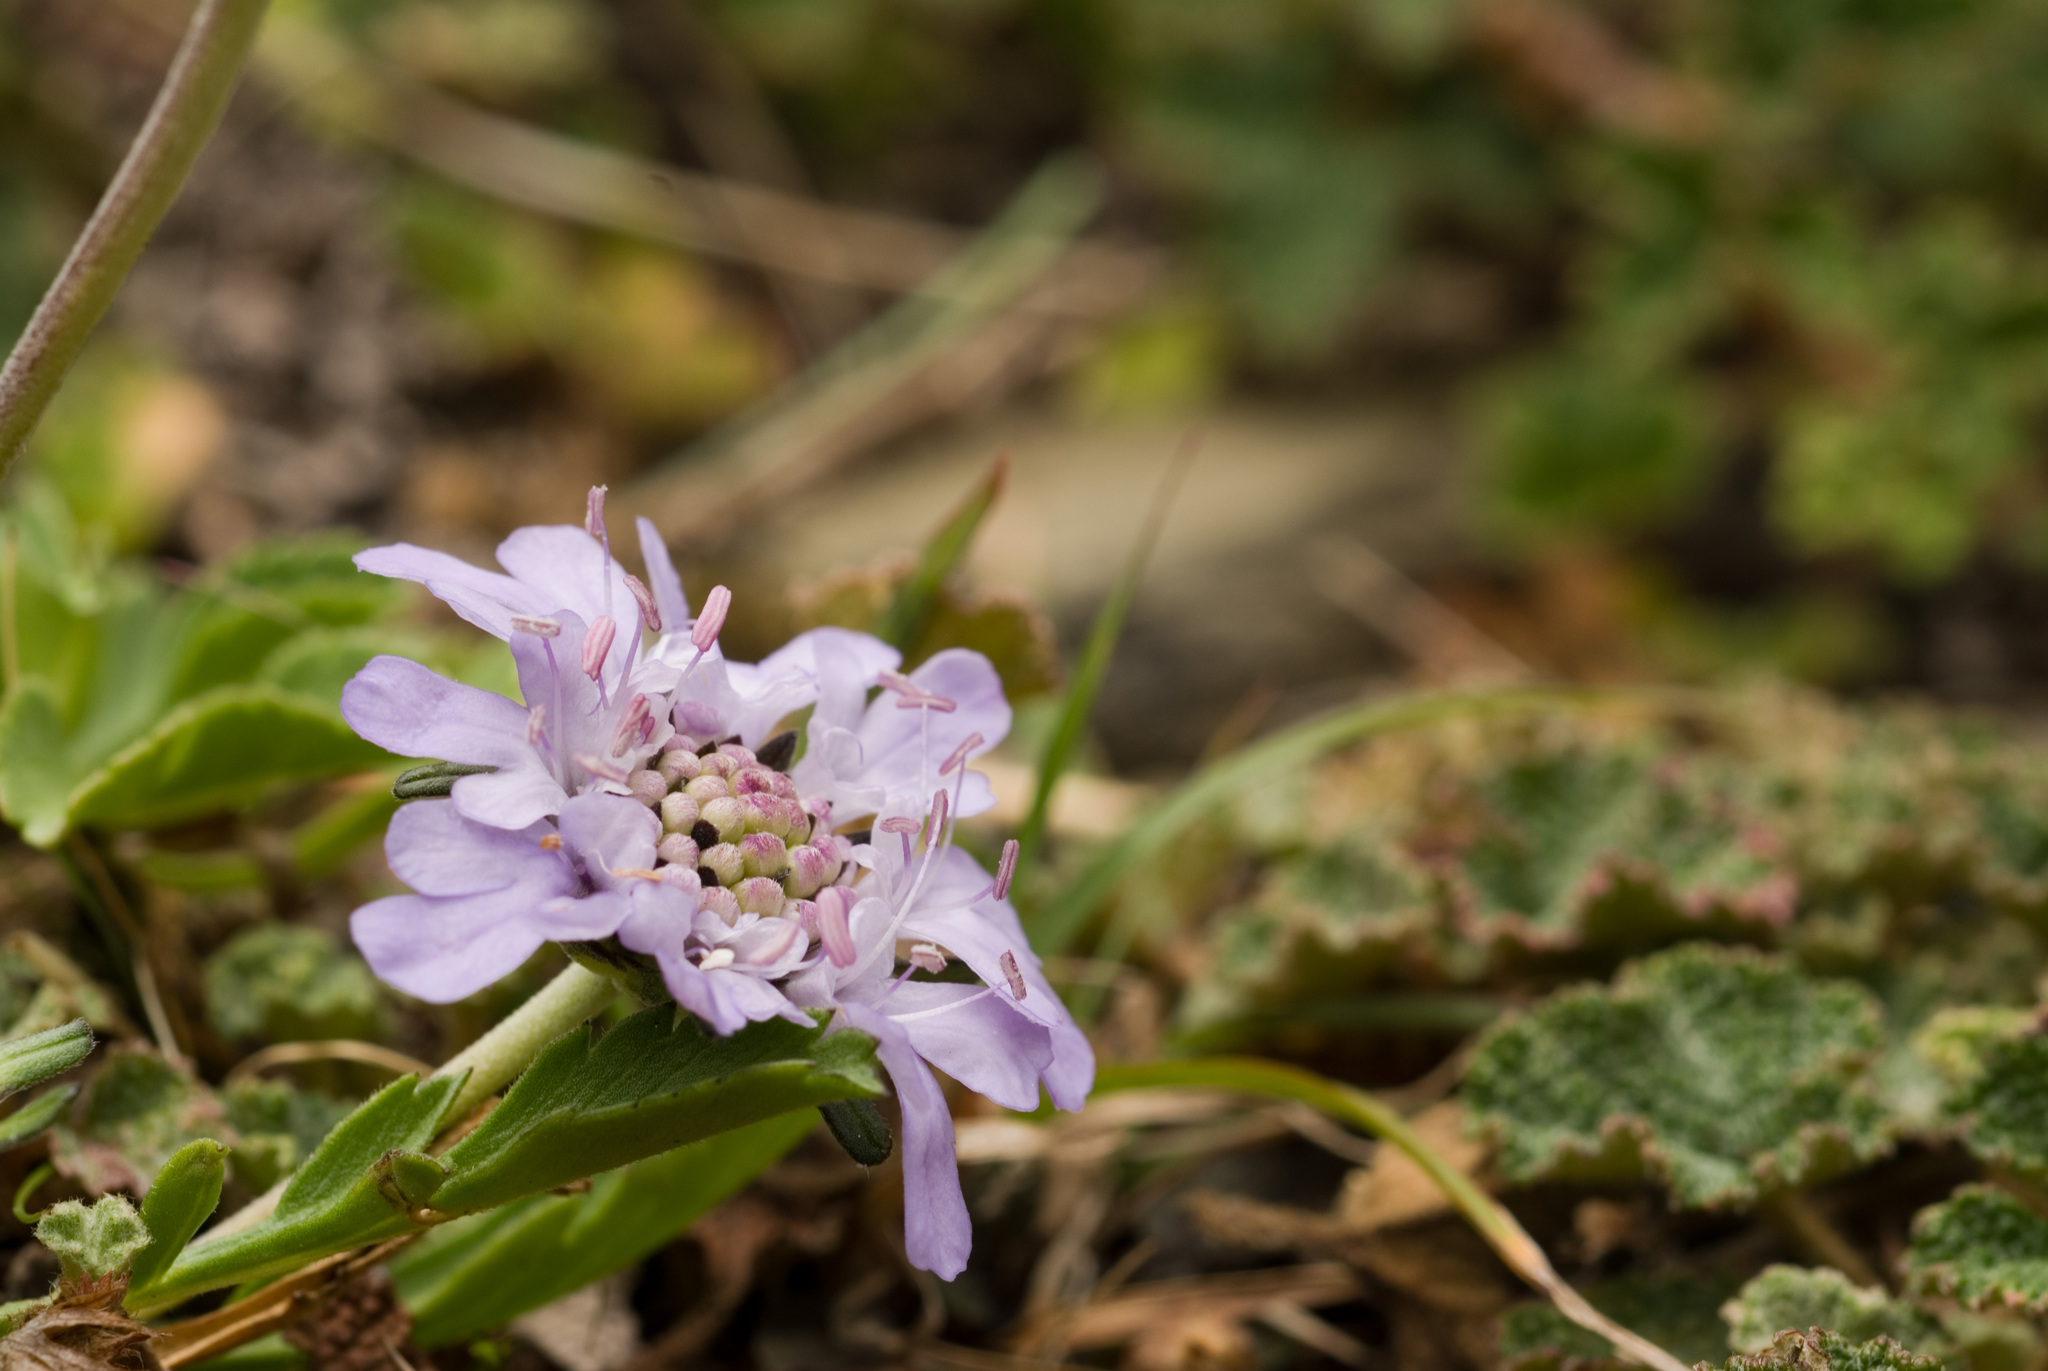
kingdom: Plantae
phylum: Tracheophyta
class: Magnoliopsida
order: Dipsacales
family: Caprifoliaceae
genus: Scabiosa
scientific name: Scabiosa lacerifolia
